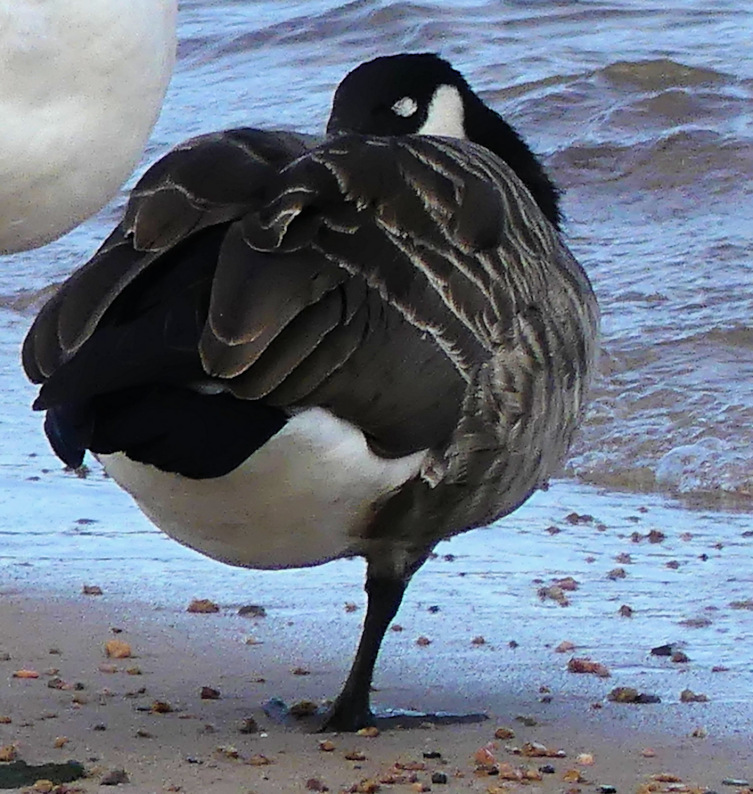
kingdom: Animalia
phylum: Chordata
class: Aves
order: Anseriformes
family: Anatidae
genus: Branta
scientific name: Branta canadensis
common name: Canada goose
